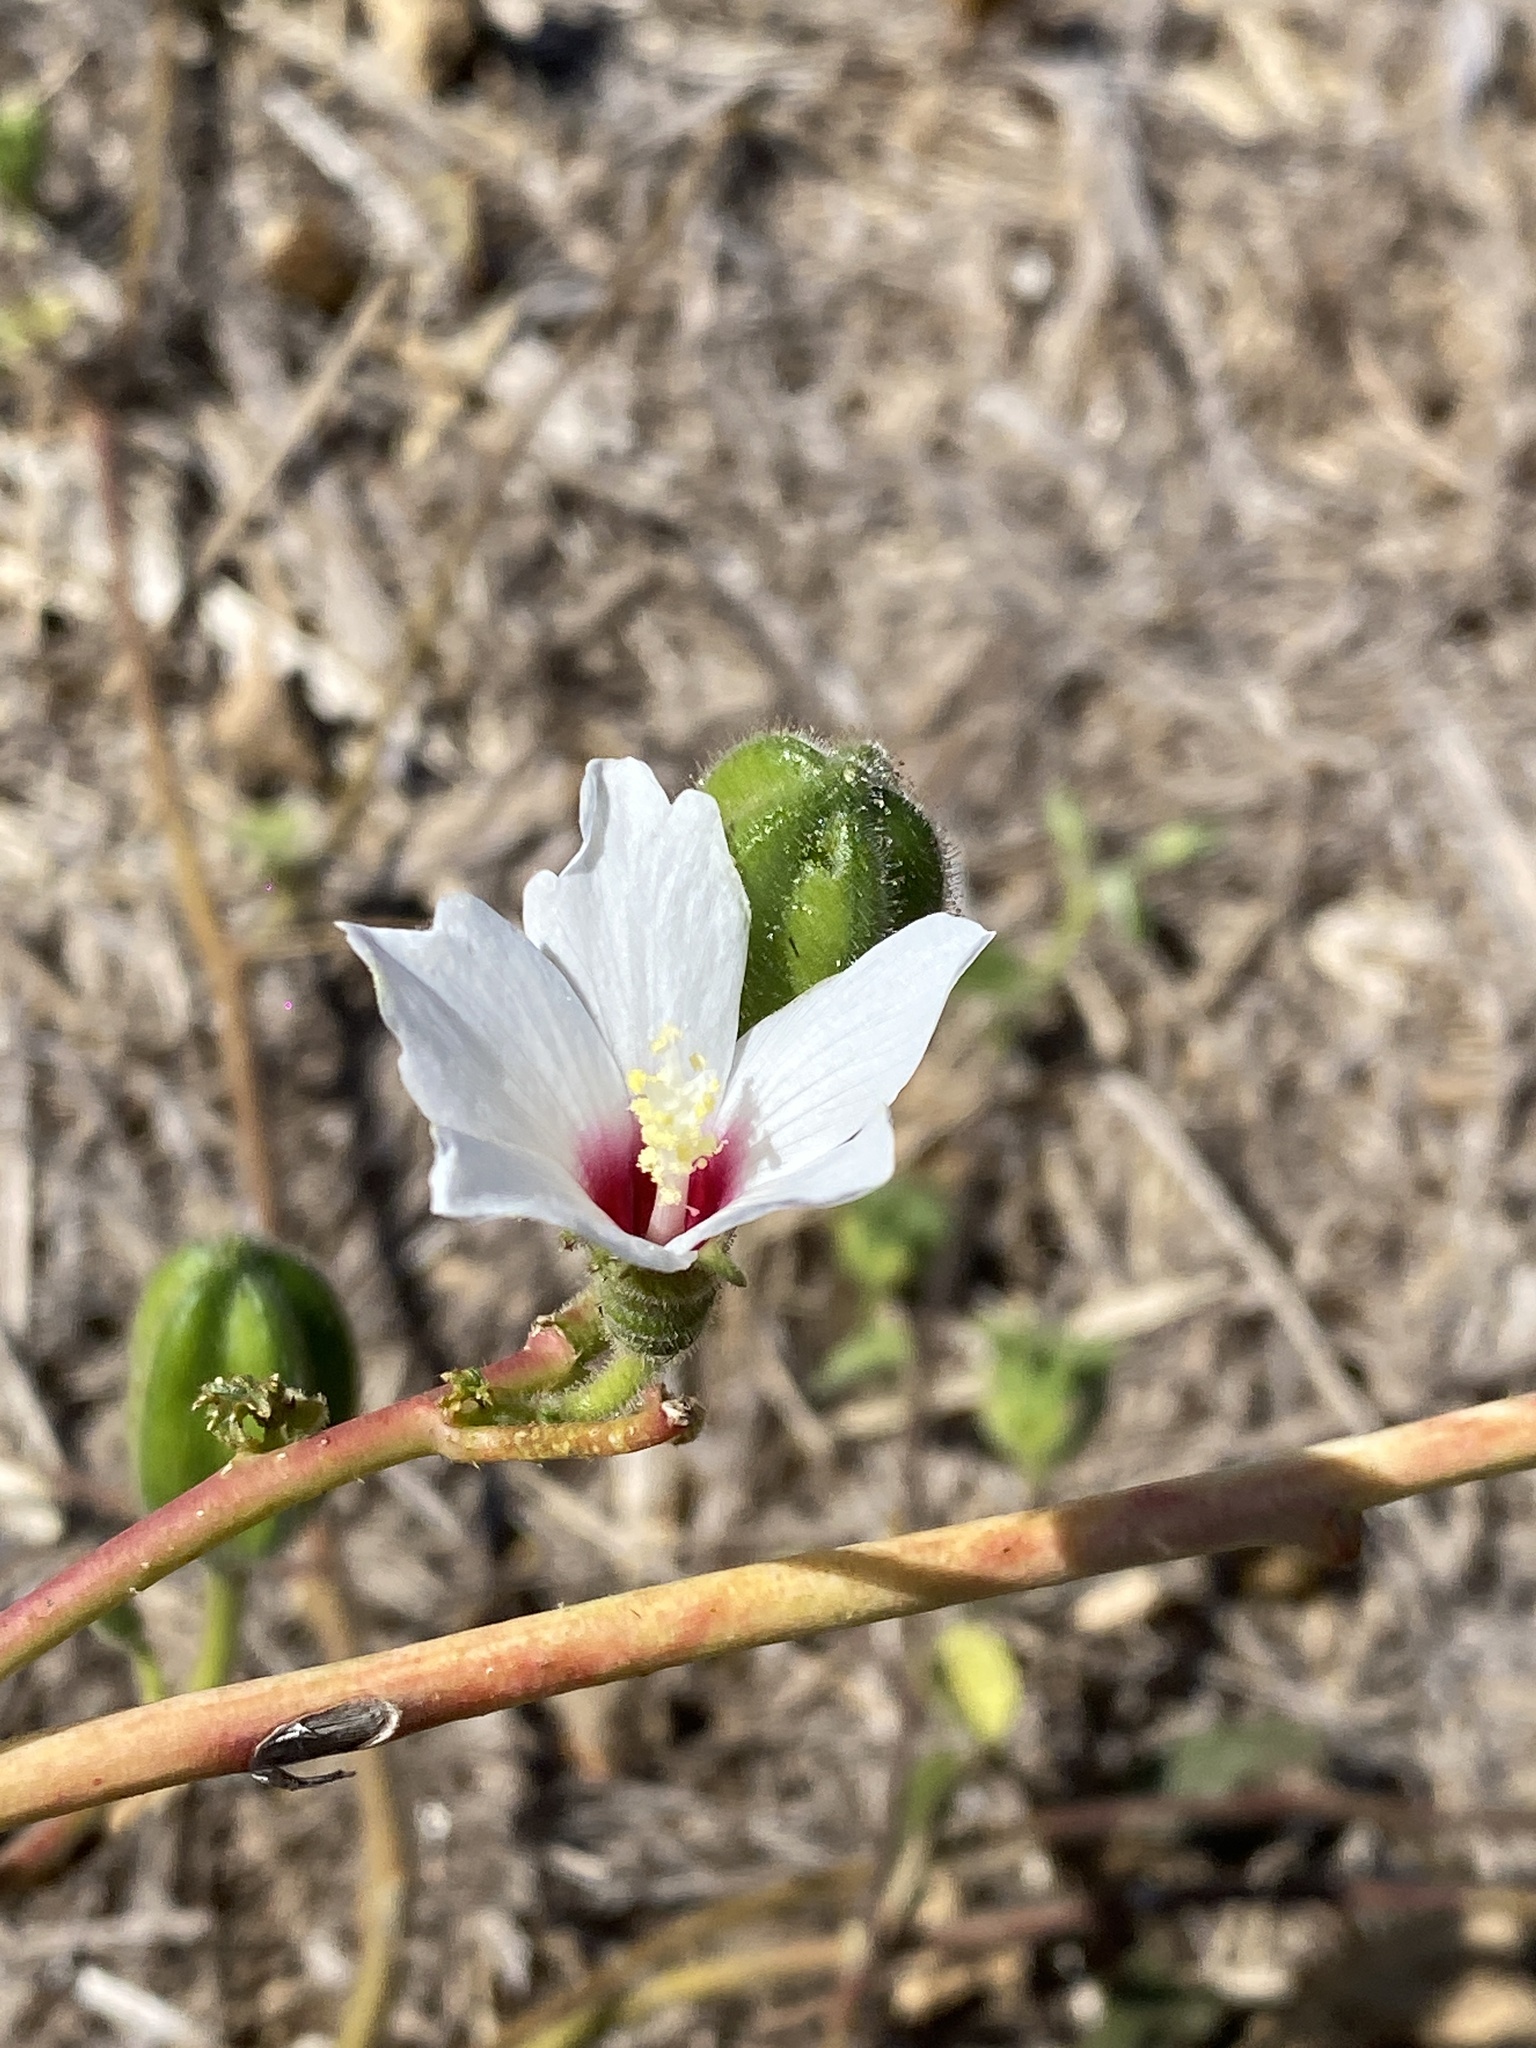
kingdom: Plantae
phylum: Tracheophyta
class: Magnoliopsida
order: Malvales
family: Malvaceae
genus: Abelmoschus
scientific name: Abelmoschus ficulneus
